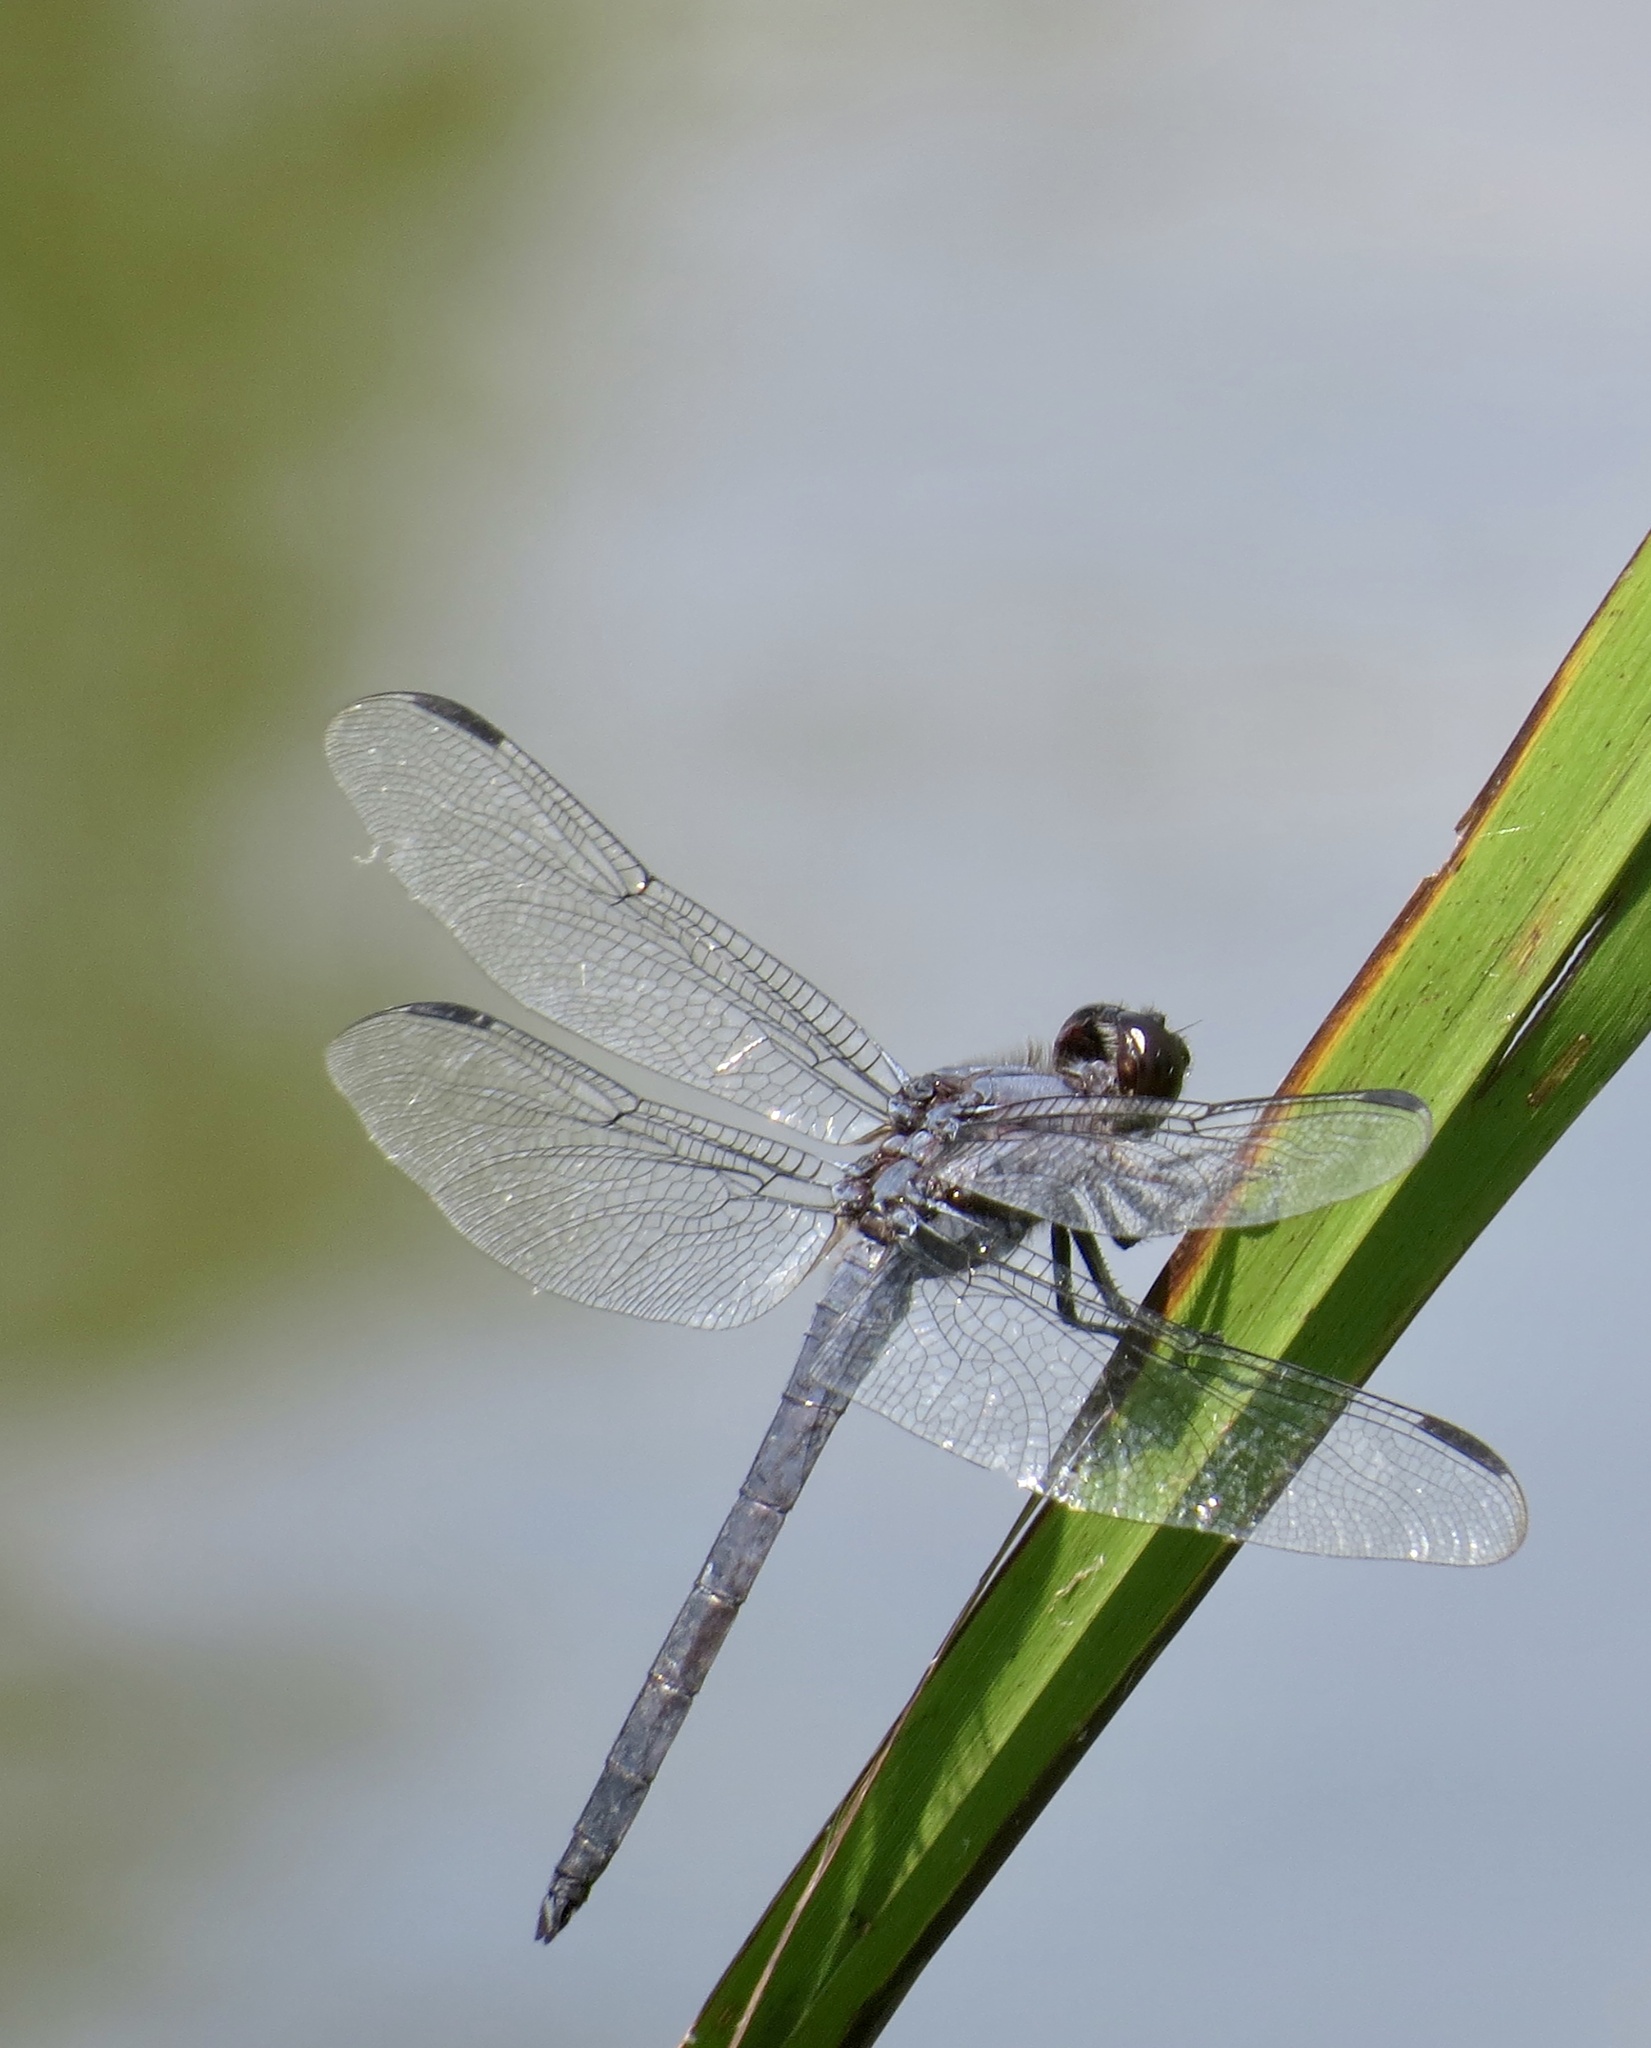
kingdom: Animalia
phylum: Arthropoda
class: Insecta
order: Odonata
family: Libellulidae
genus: Libellula
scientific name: Libellula incesta
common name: Slaty skimmer
